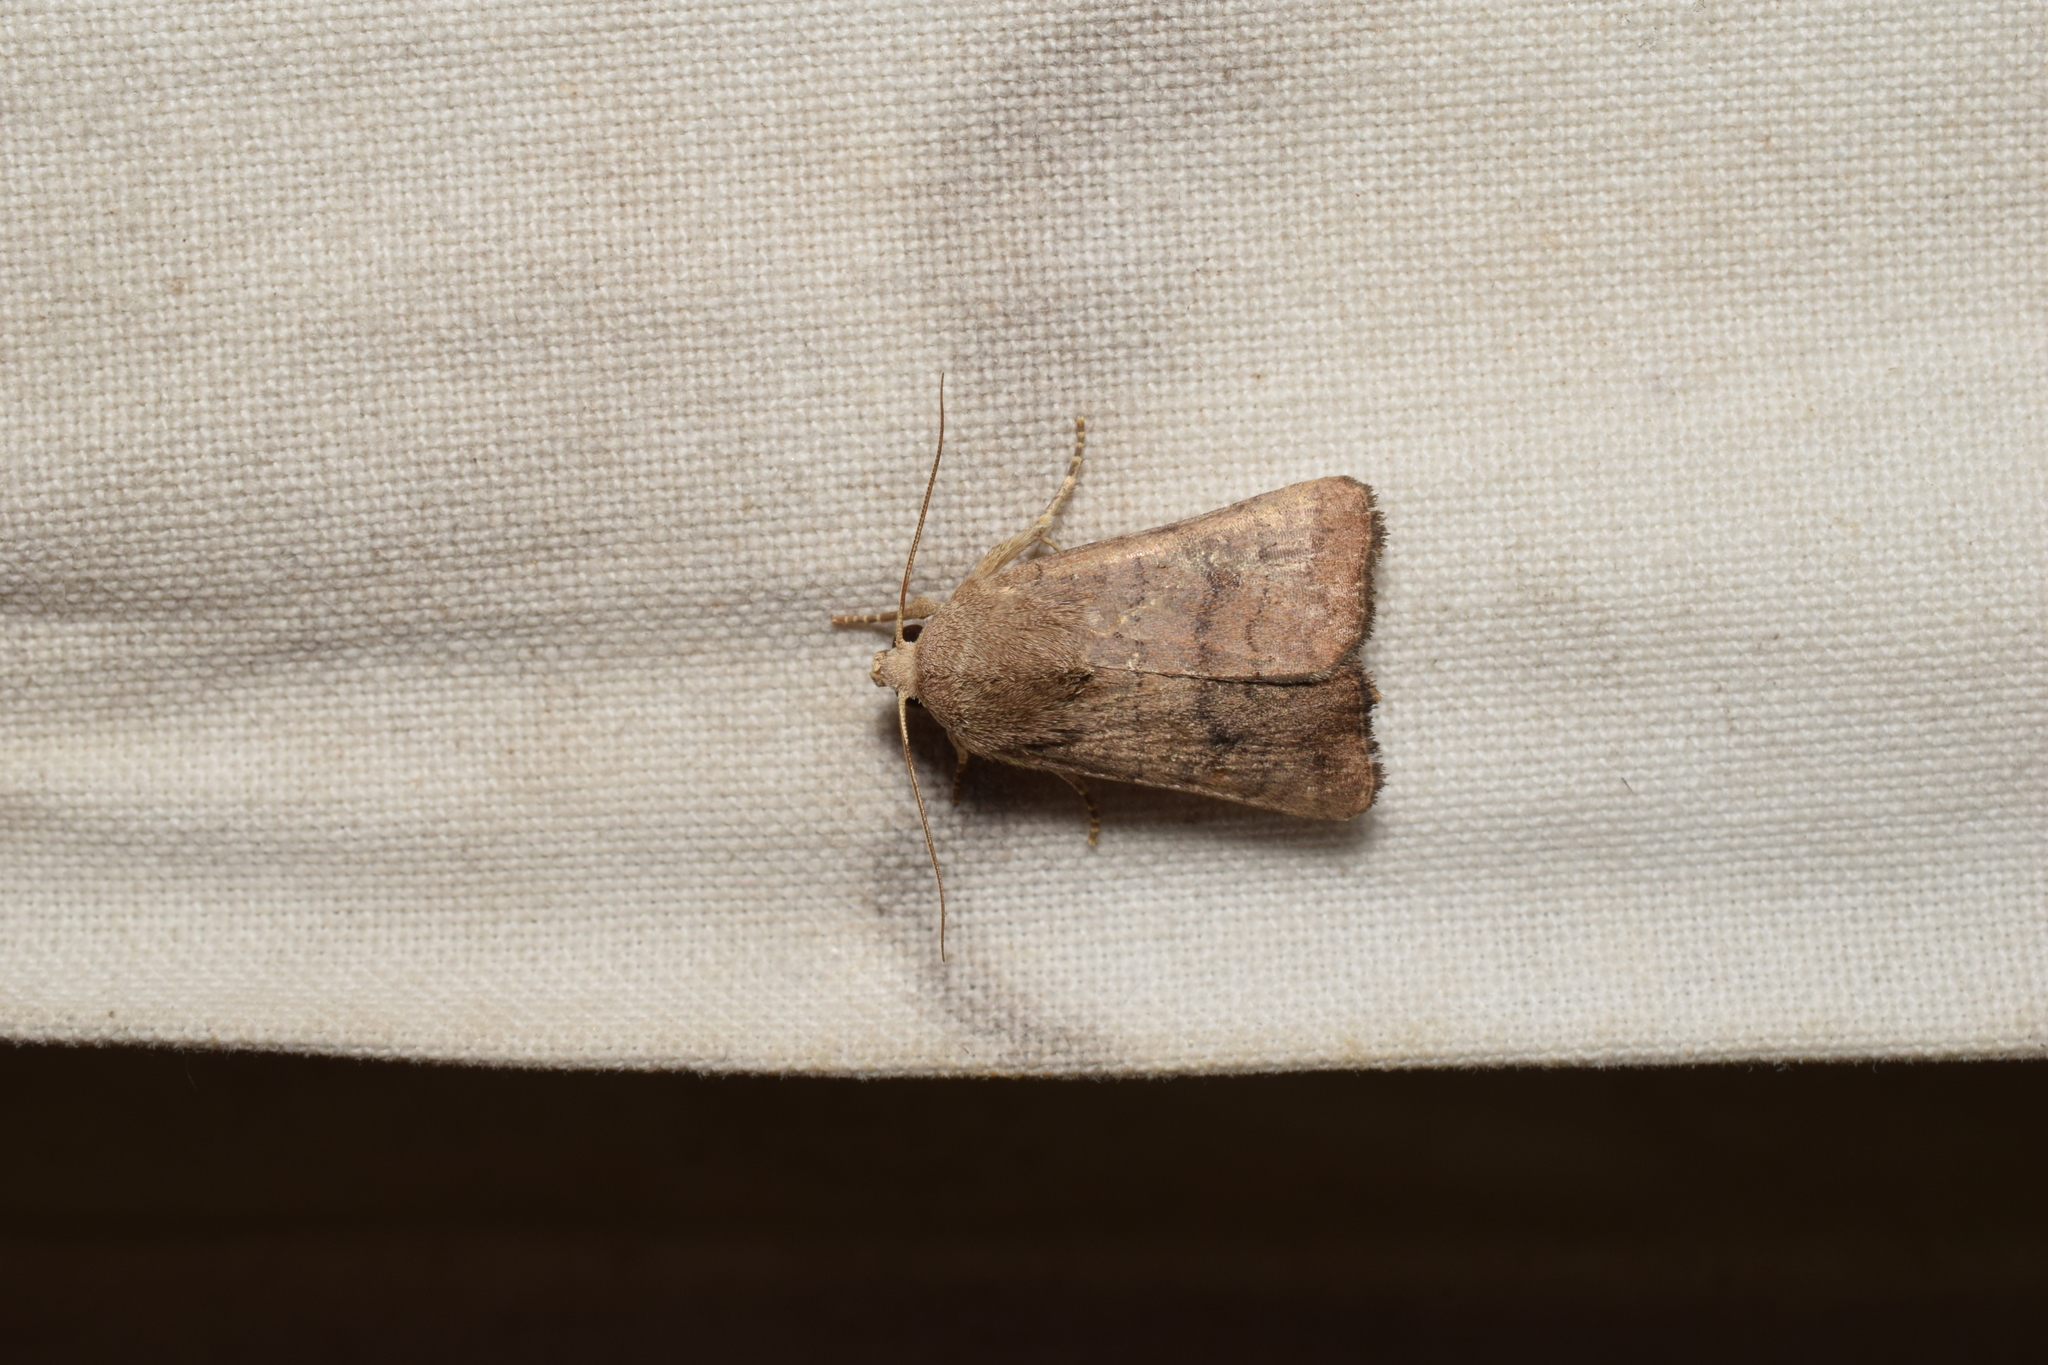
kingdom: Animalia
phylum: Arthropoda
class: Insecta
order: Lepidoptera
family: Noctuidae
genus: Athetis
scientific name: Athetis stellata
